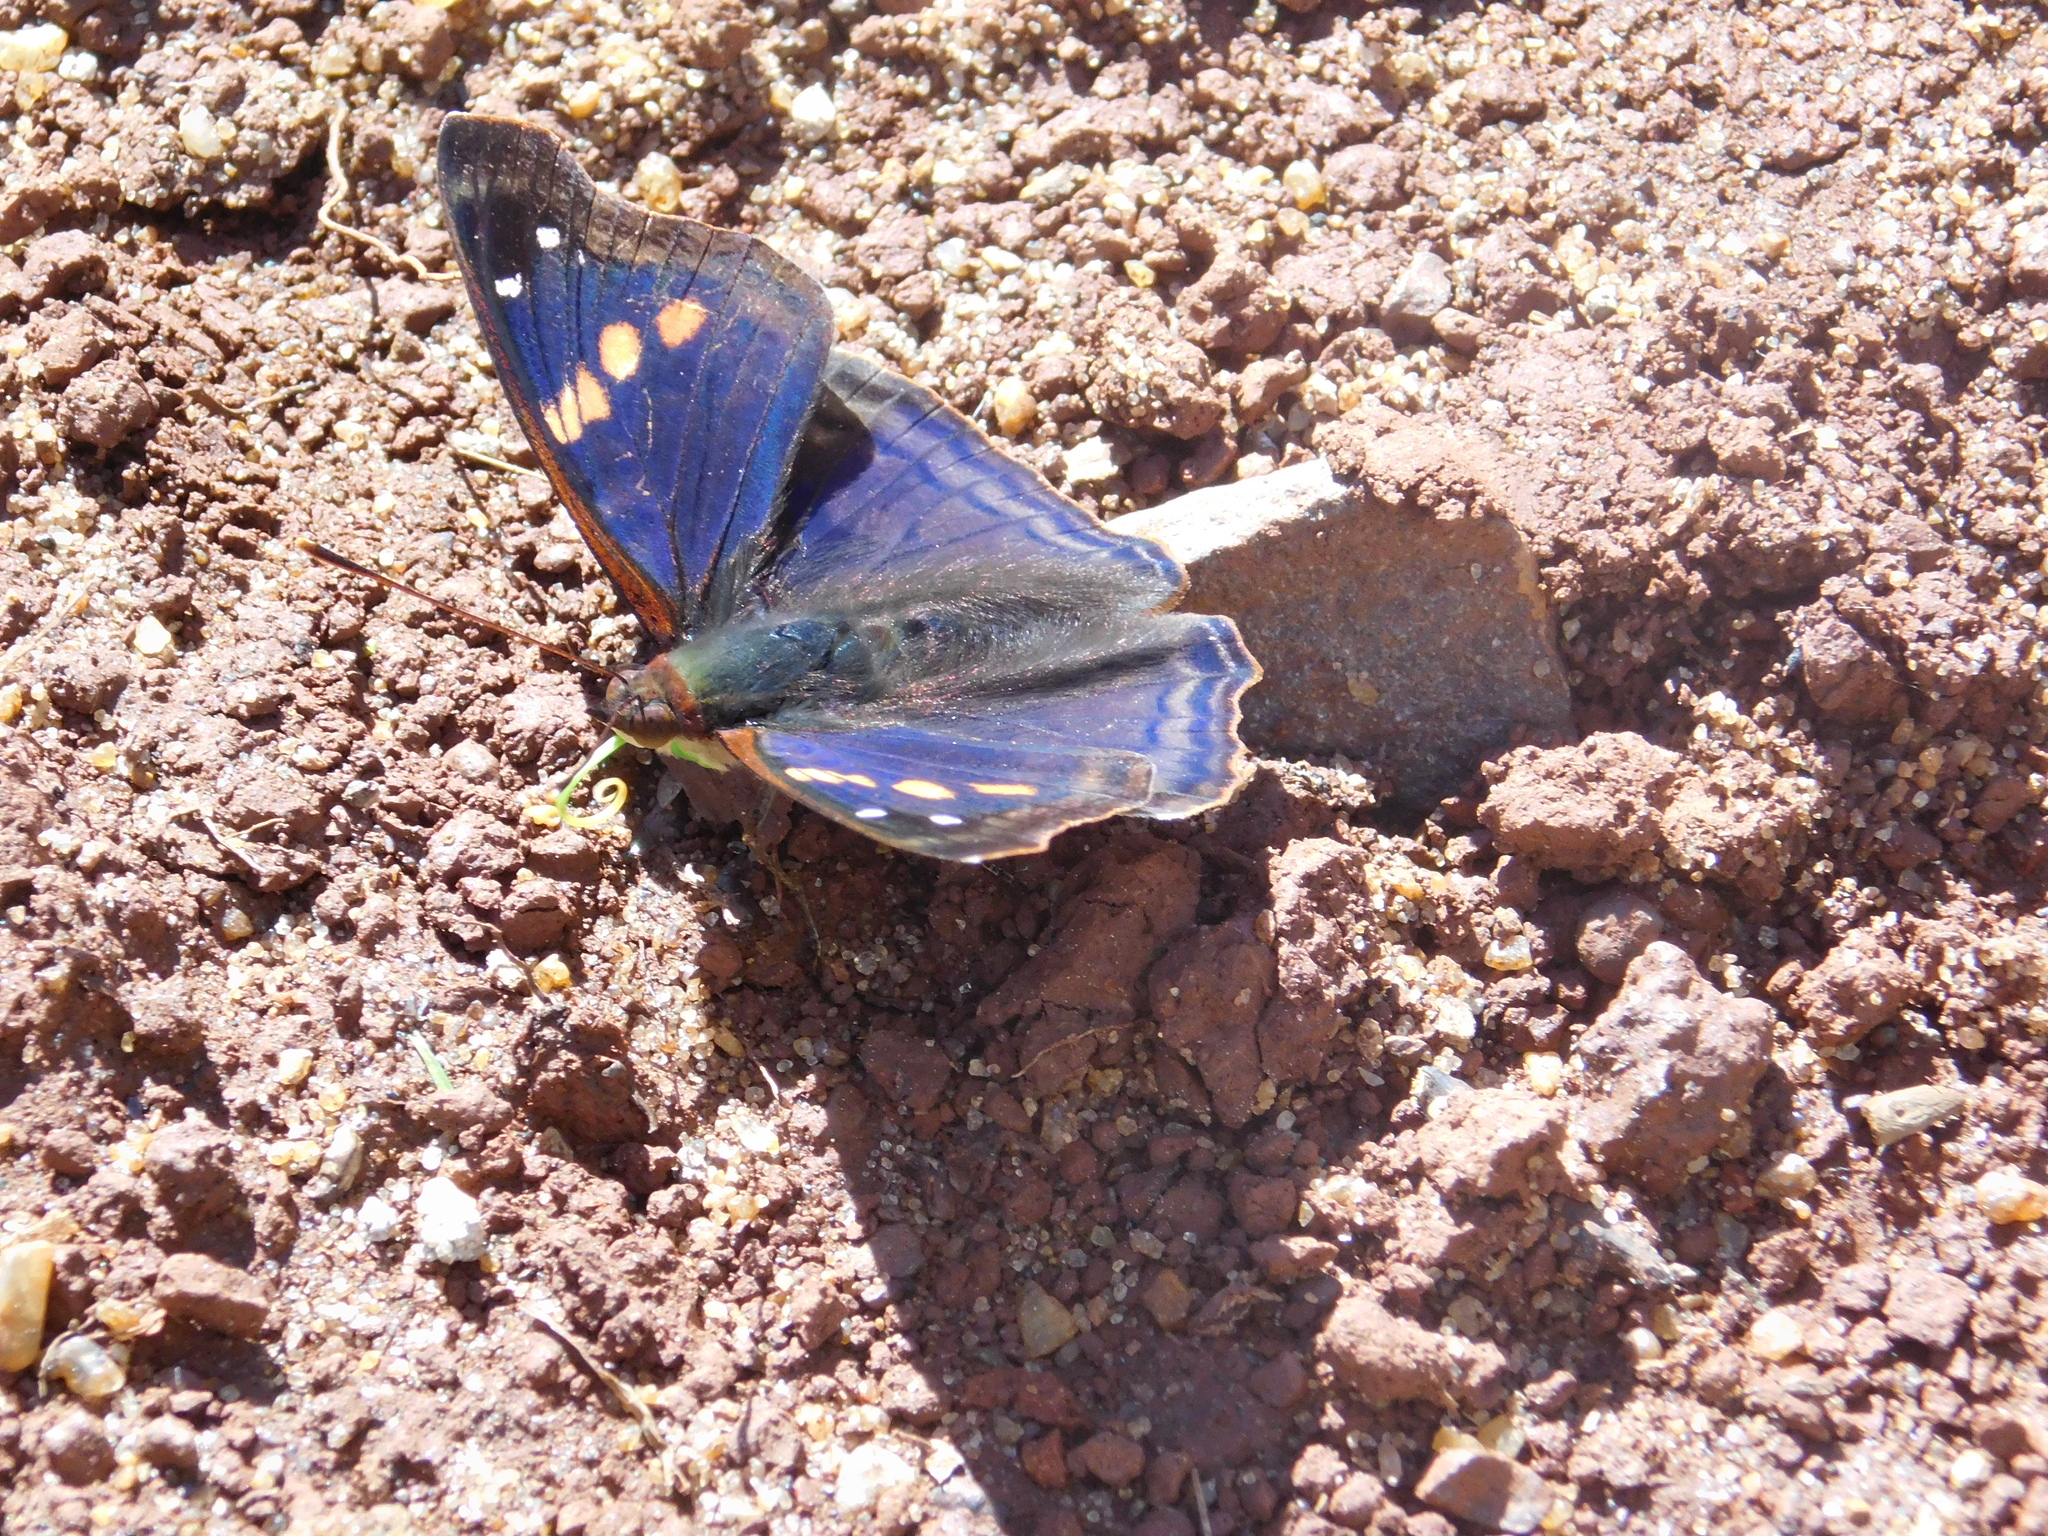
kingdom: Animalia
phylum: Arthropoda
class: Insecta
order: Lepidoptera
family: Nymphalidae
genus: Doxocopa
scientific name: Doxocopa agathina
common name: Agathina emperor
